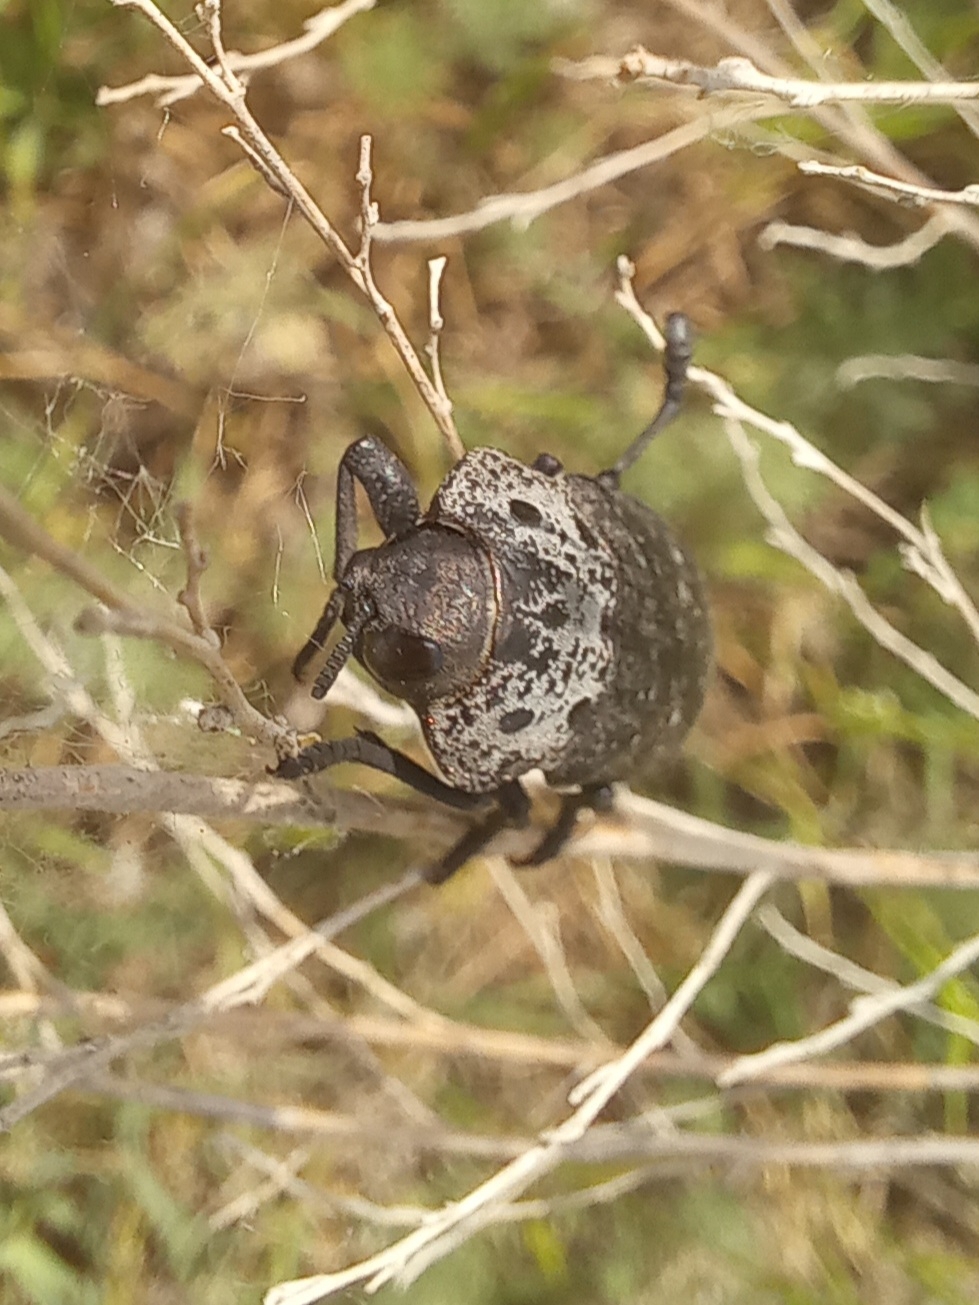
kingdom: Animalia
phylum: Arthropoda
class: Insecta
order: Coleoptera
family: Buprestidae
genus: Capnodis
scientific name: Capnodis tenebrionis
